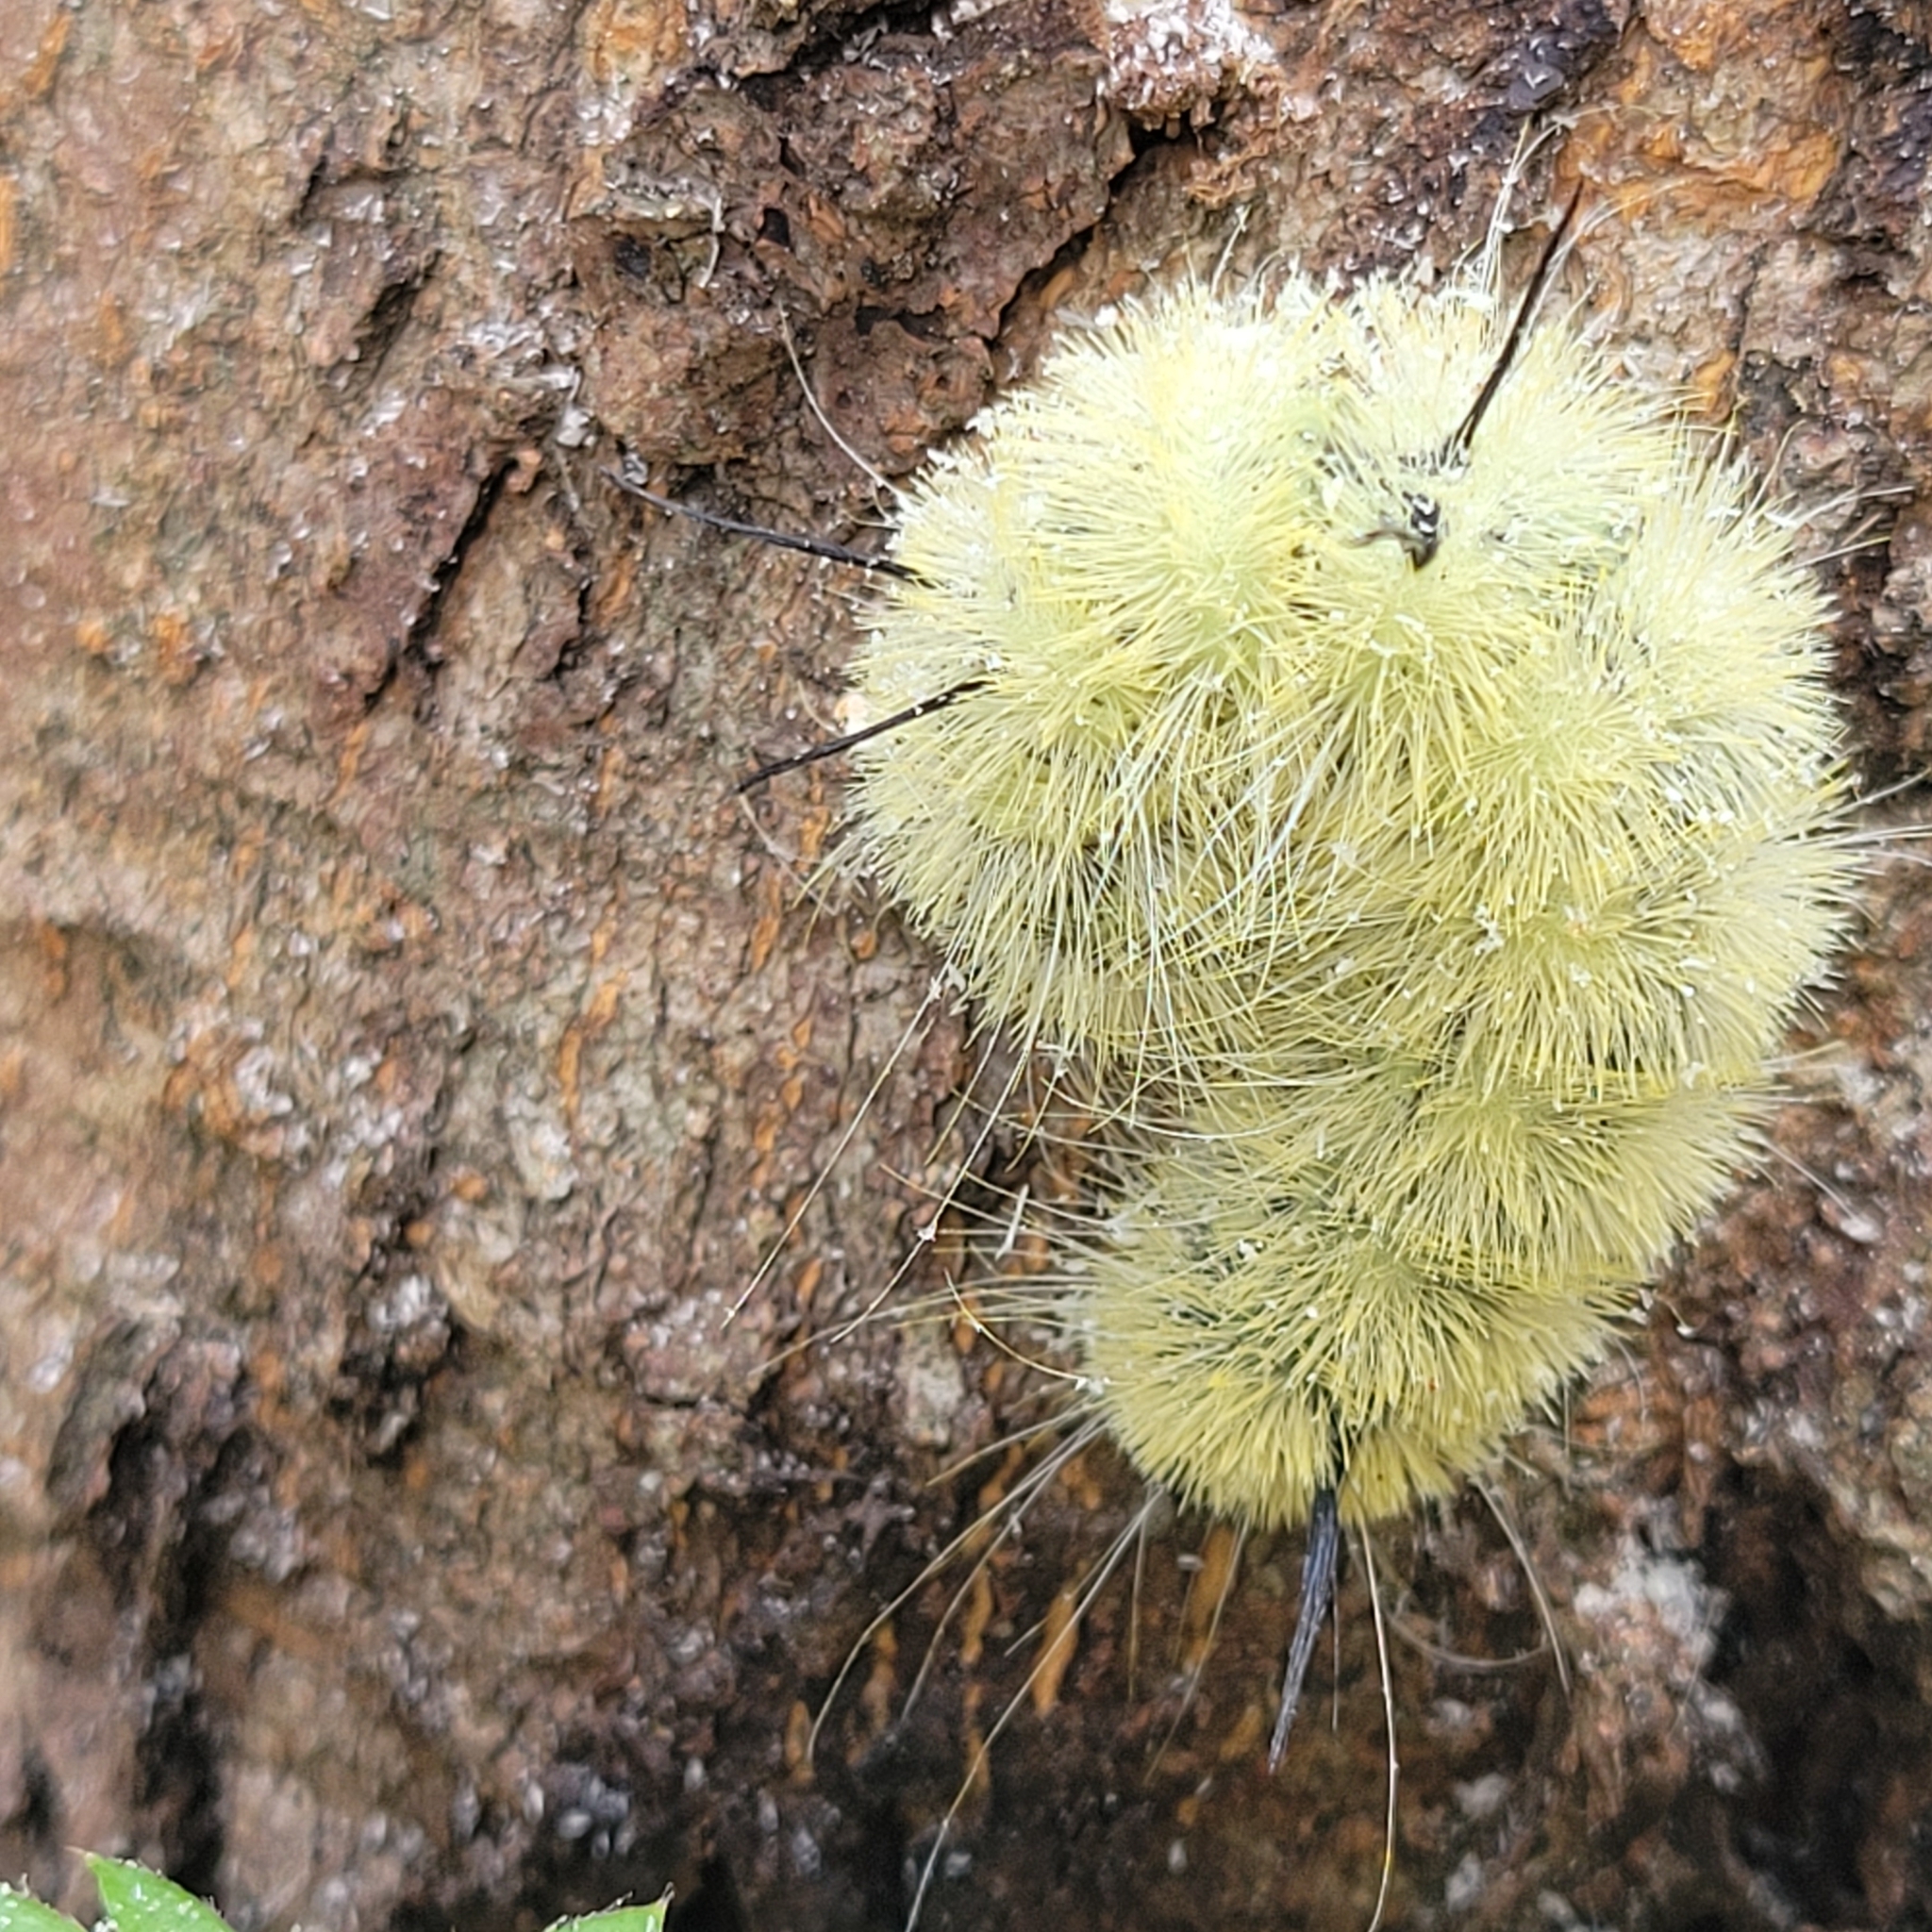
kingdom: Animalia
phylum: Arthropoda
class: Insecta
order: Lepidoptera
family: Noctuidae
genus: Acronicta
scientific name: Acronicta americana
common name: American dagger
